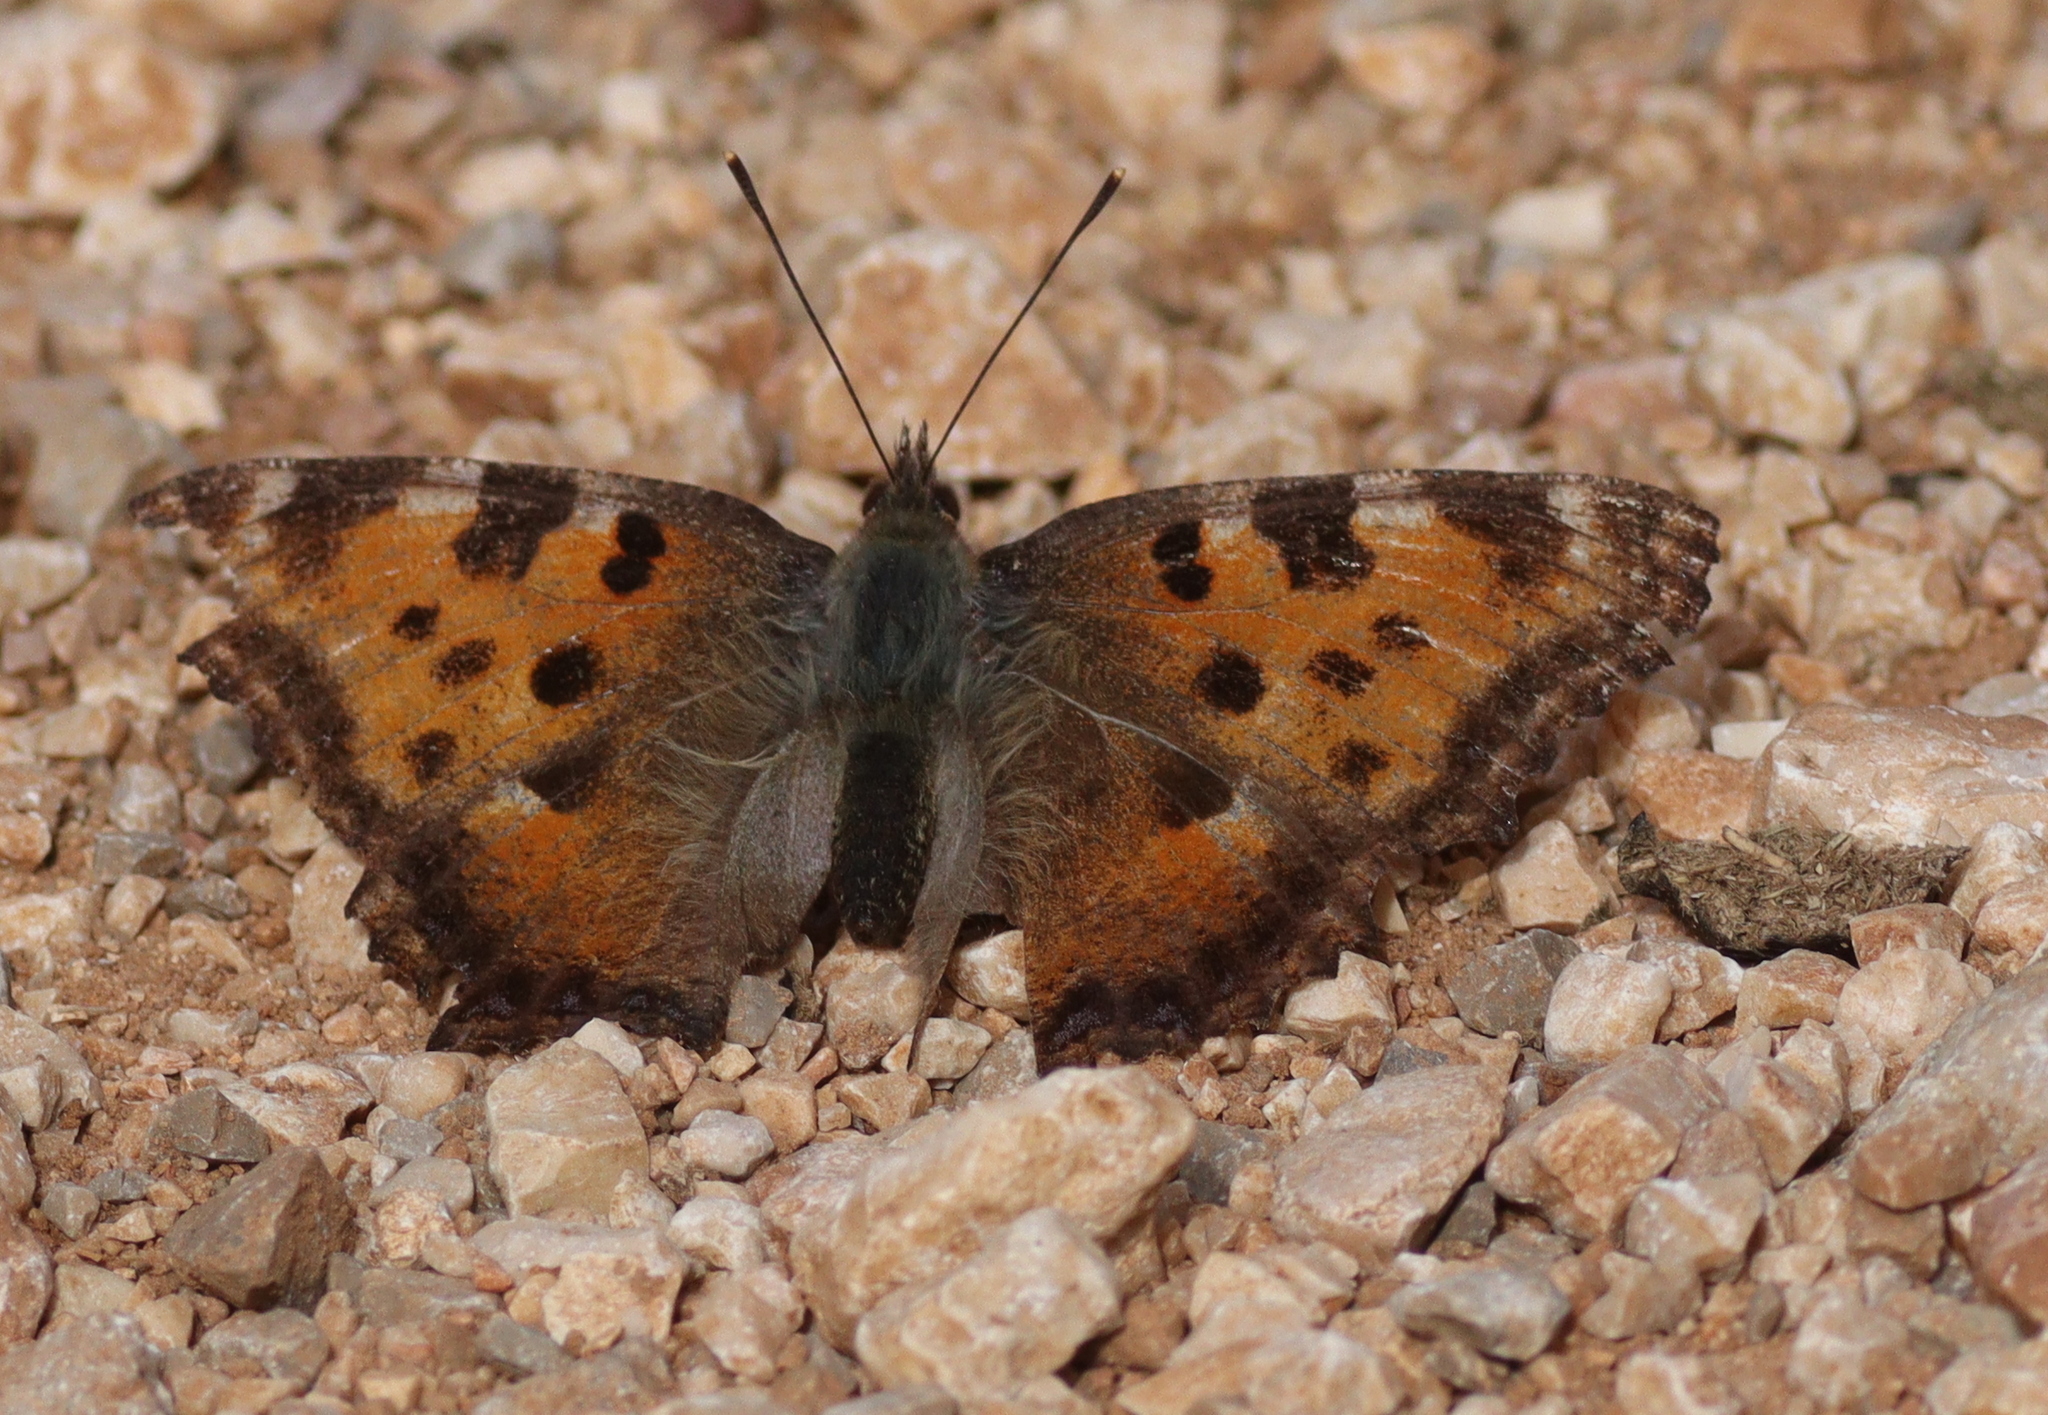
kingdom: Animalia
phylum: Arthropoda
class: Insecta
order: Lepidoptera
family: Nymphalidae
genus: Nymphalis
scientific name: Nymphalis polychloros
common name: Large tortoiseshell
